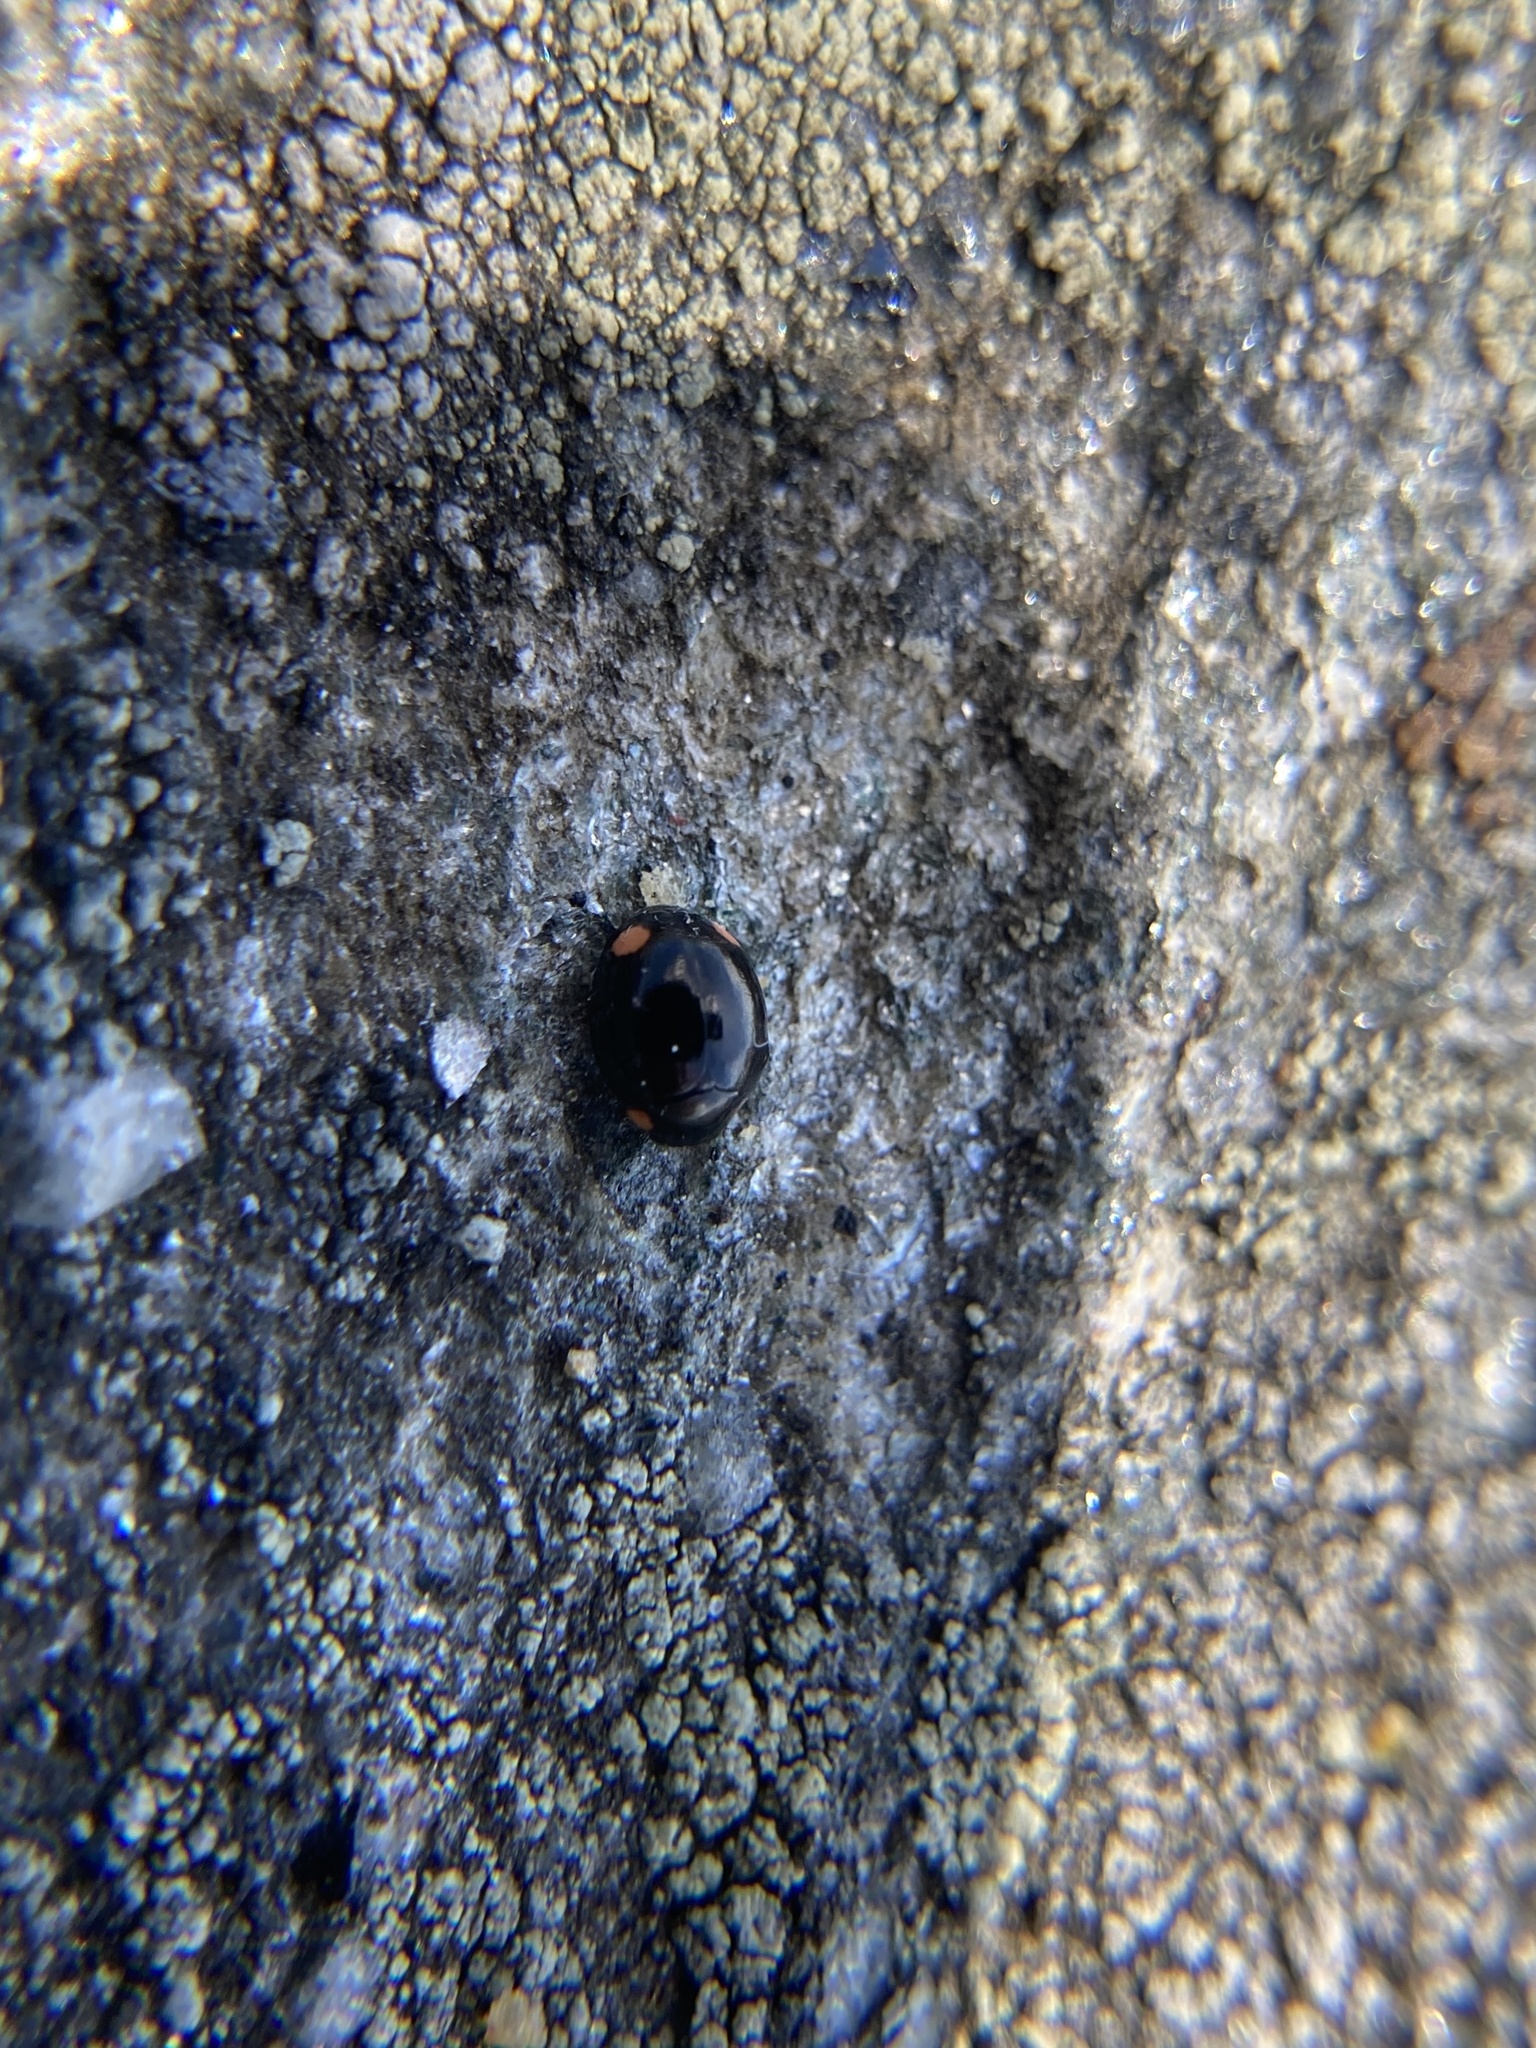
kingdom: Animalia
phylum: Arthropoda
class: Insecta
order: Coleoptera
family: Coccinellidae
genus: Hyperaspis
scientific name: Hyperaspis bigeminata
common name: Bigeminate sigil lady beetle
